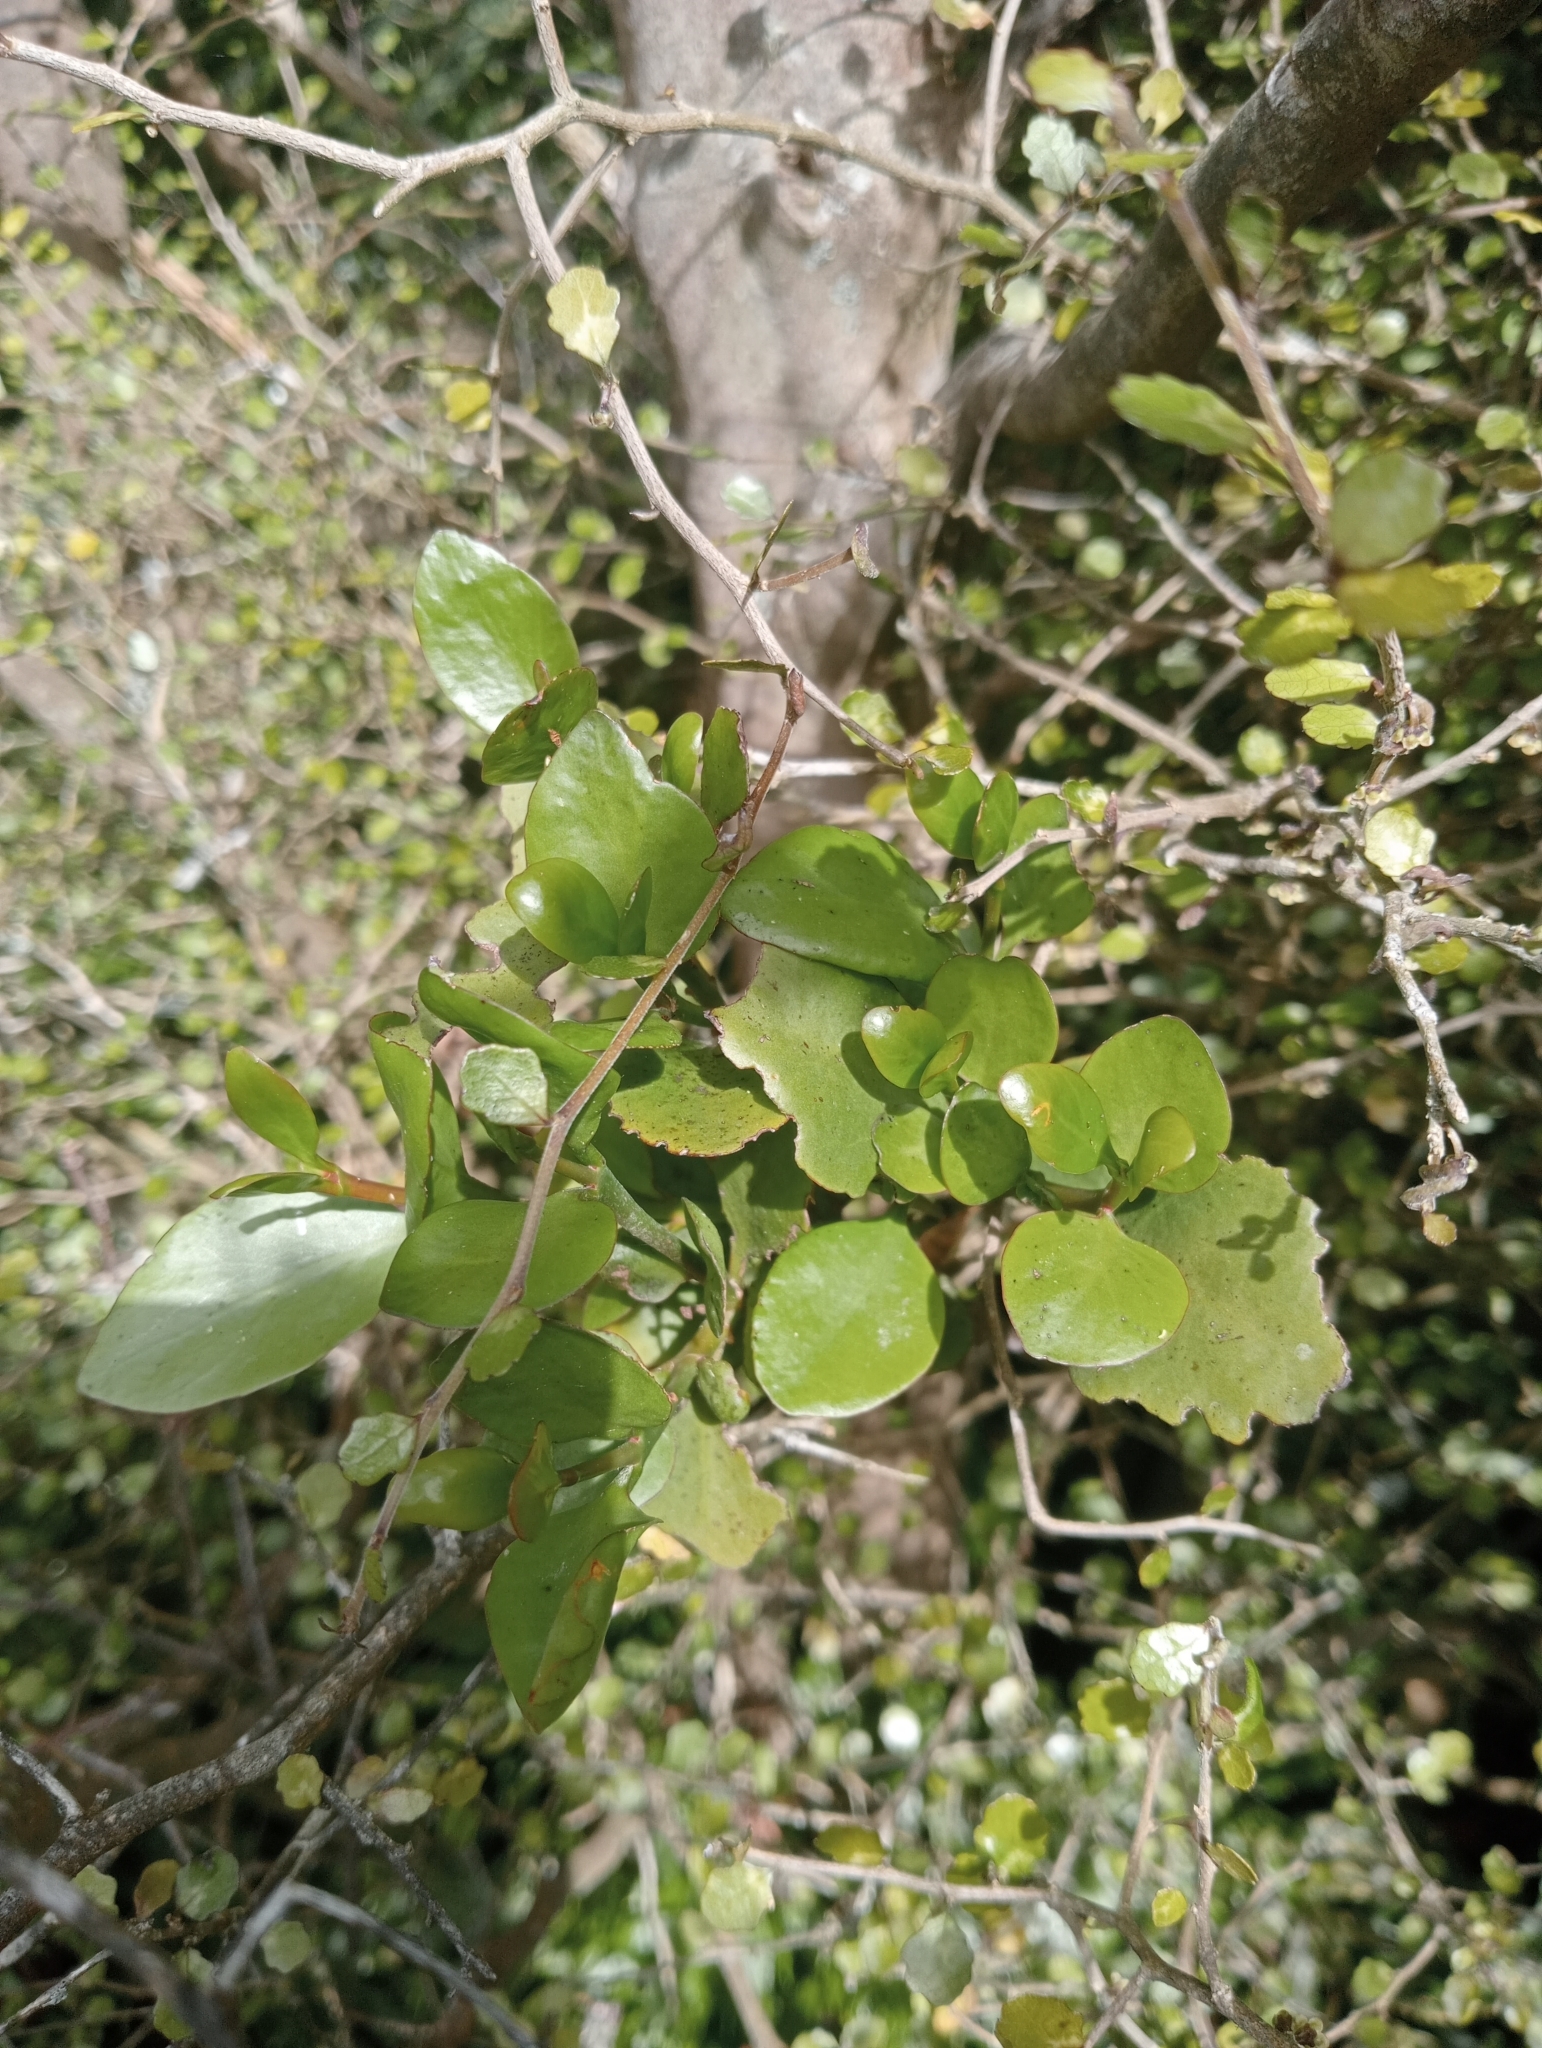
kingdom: Plantae
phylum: Tracheophyta
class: Magnoliopsida
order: Santalales
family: Loranthaceae
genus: Ileostylus
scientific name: Ileostylus micranthus
